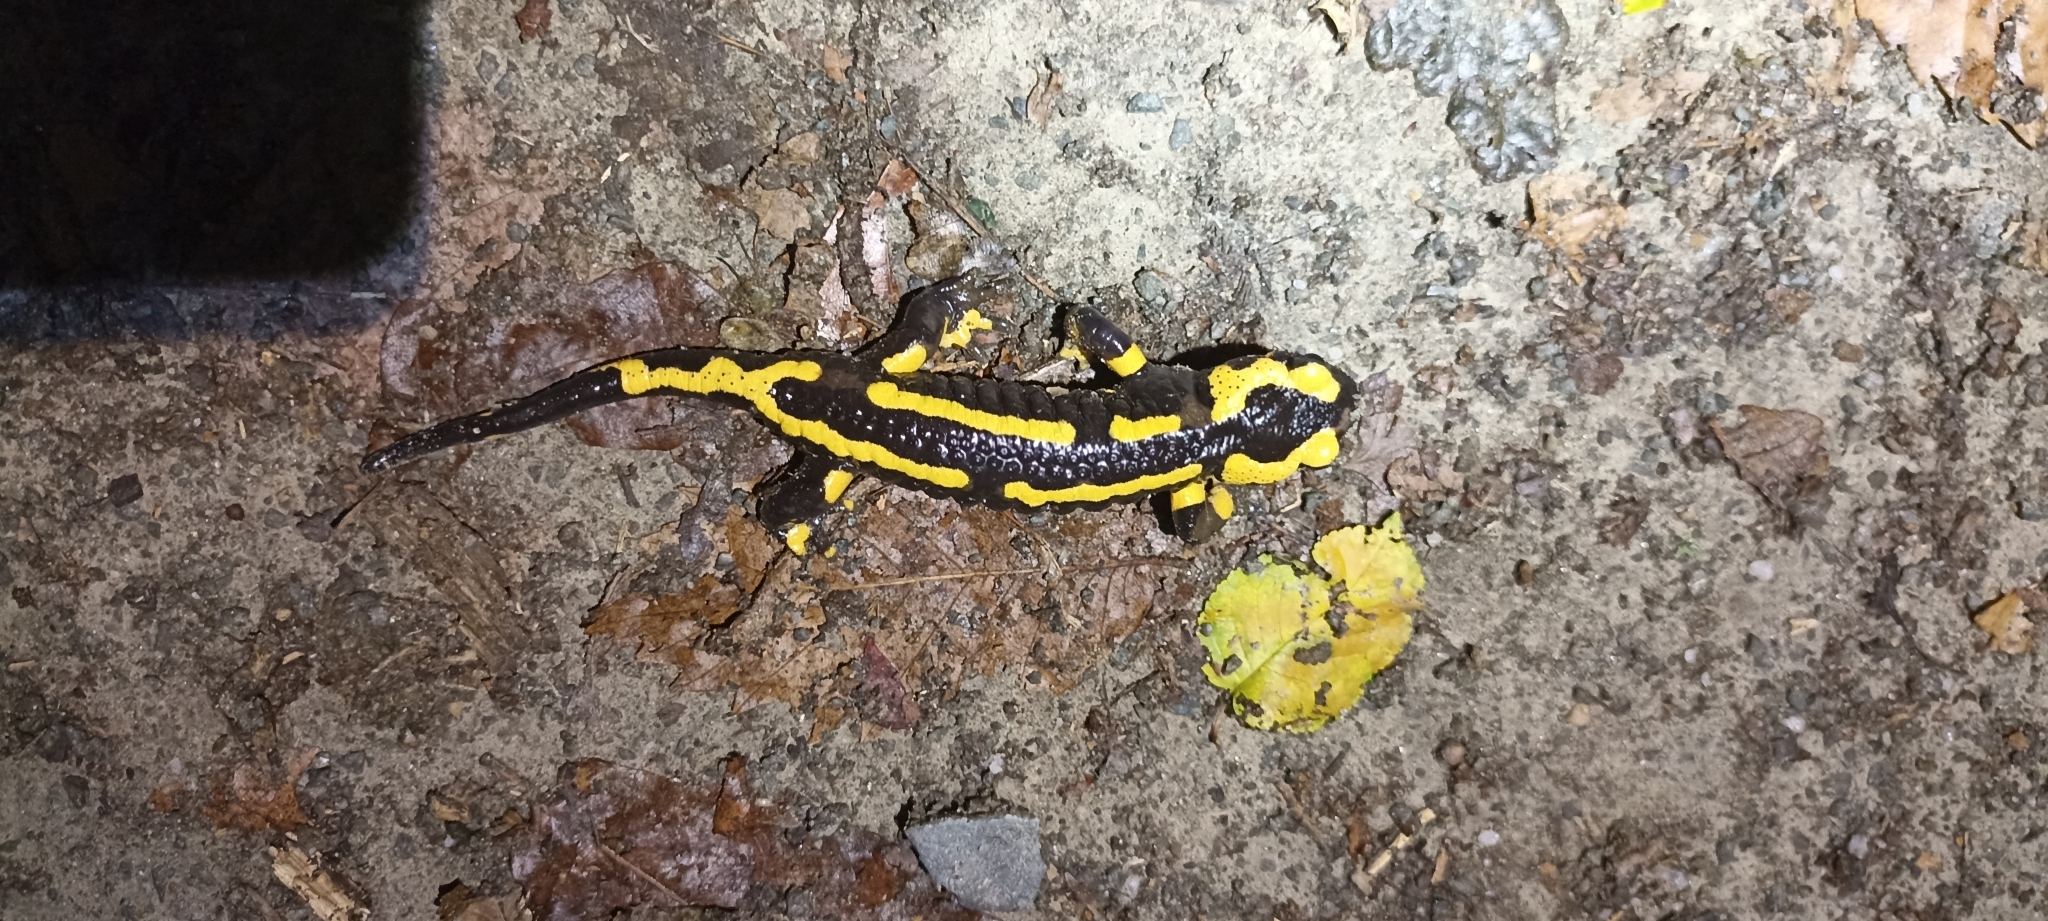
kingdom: Animalia
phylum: Chordata
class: Amphibia
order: Caudata
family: Salamandridae
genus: Salamandra
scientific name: Salamandra salamandra
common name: Fire salamander
